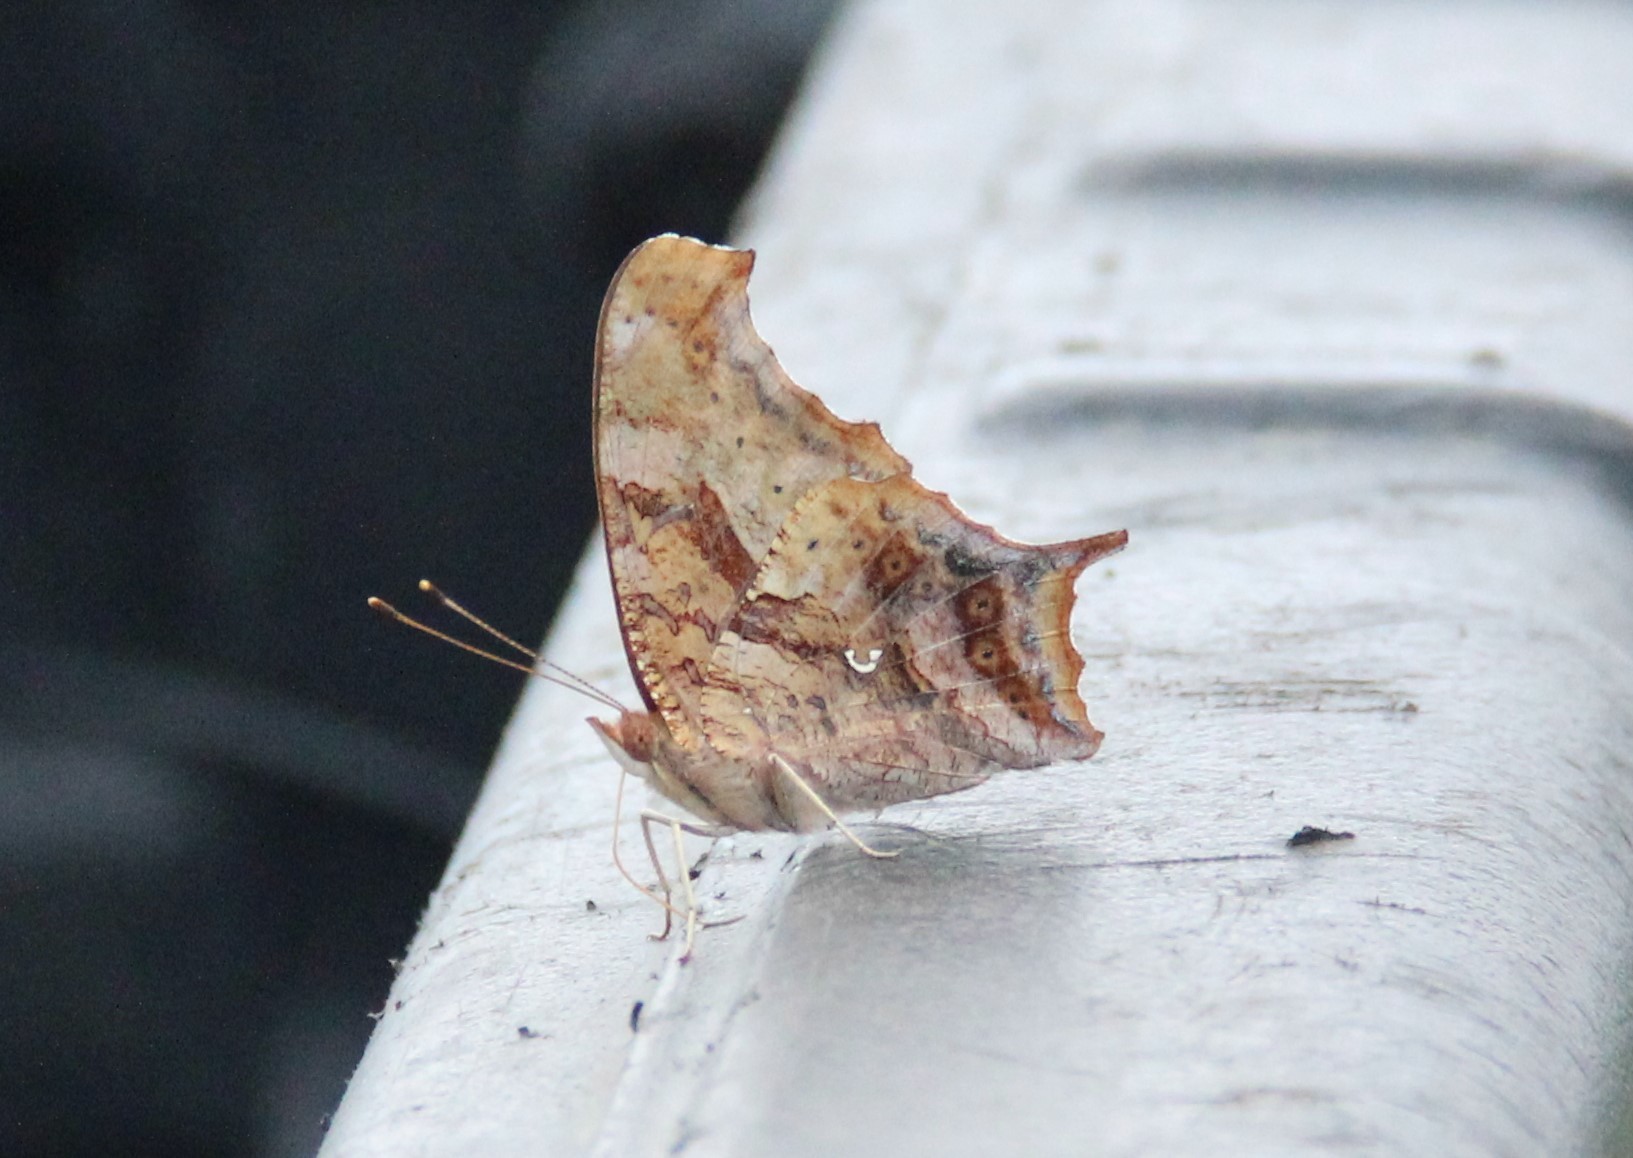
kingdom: Animalia
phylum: Arthropoda
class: Insecta
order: Lepidoptera
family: Nymphalidae
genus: Polygonia
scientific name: Polygonia interrogationis
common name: Question mark
